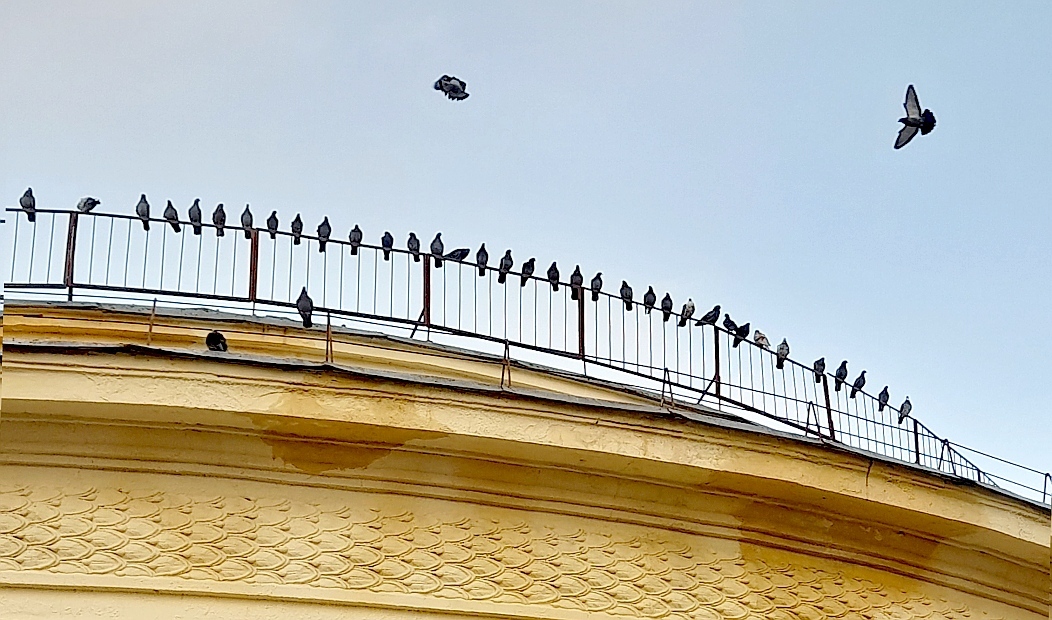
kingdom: Animalia
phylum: Chordata
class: Aves
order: Columbiformes
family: Columbidae
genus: Columba
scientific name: Columba livia
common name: Rock pigeon
